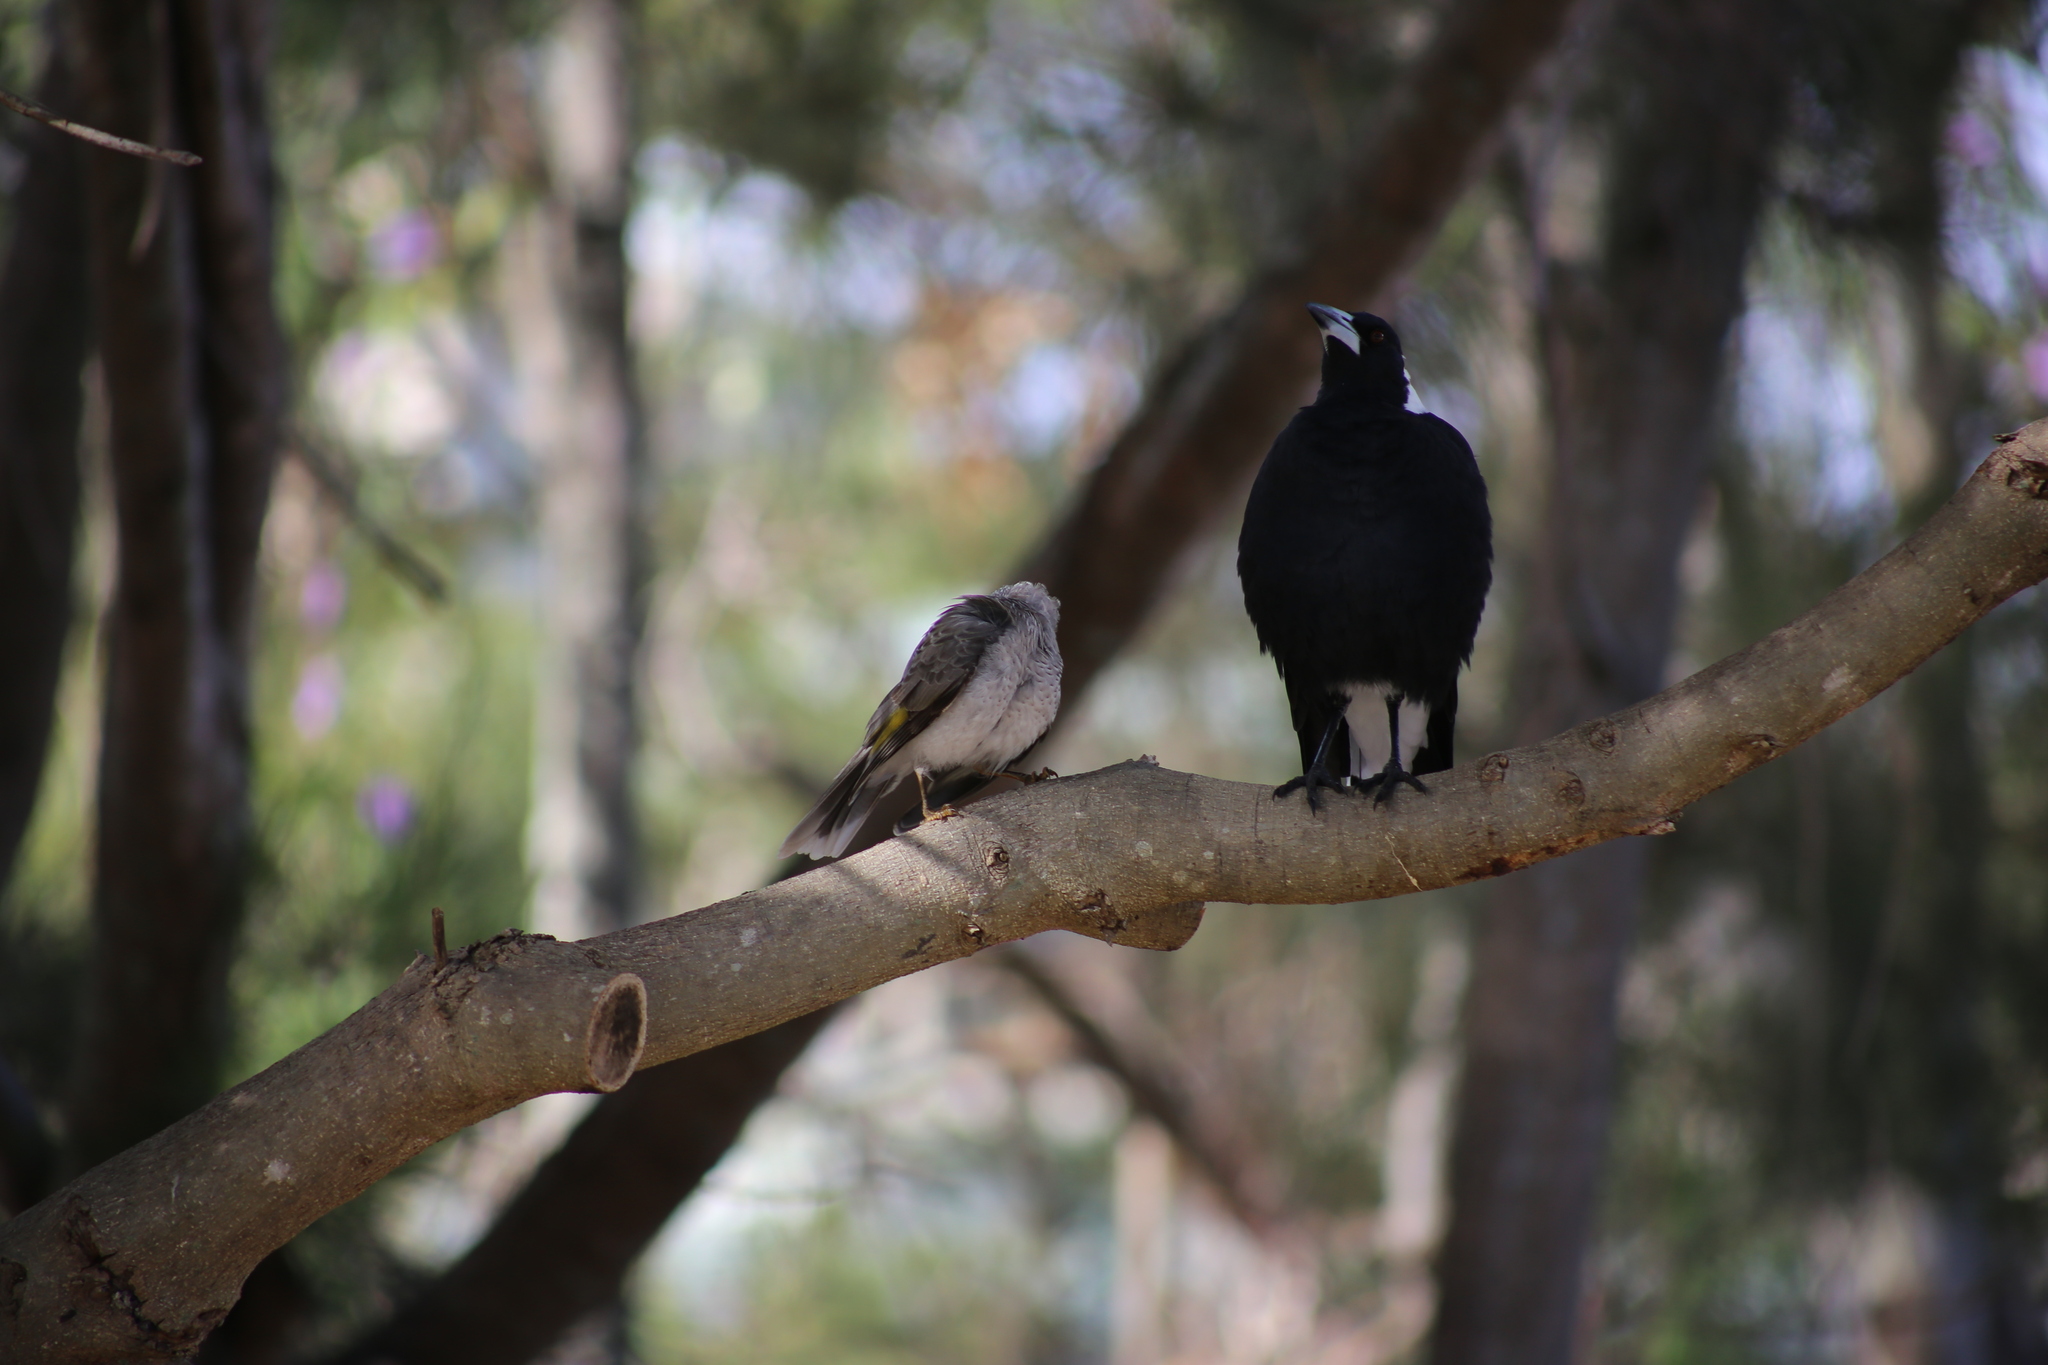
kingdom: Animalia
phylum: Chordata
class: Aves
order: Passeriformes
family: Cracticidae
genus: Gymnorhina
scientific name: Gymnorhina tibicen
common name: Australian magpie
